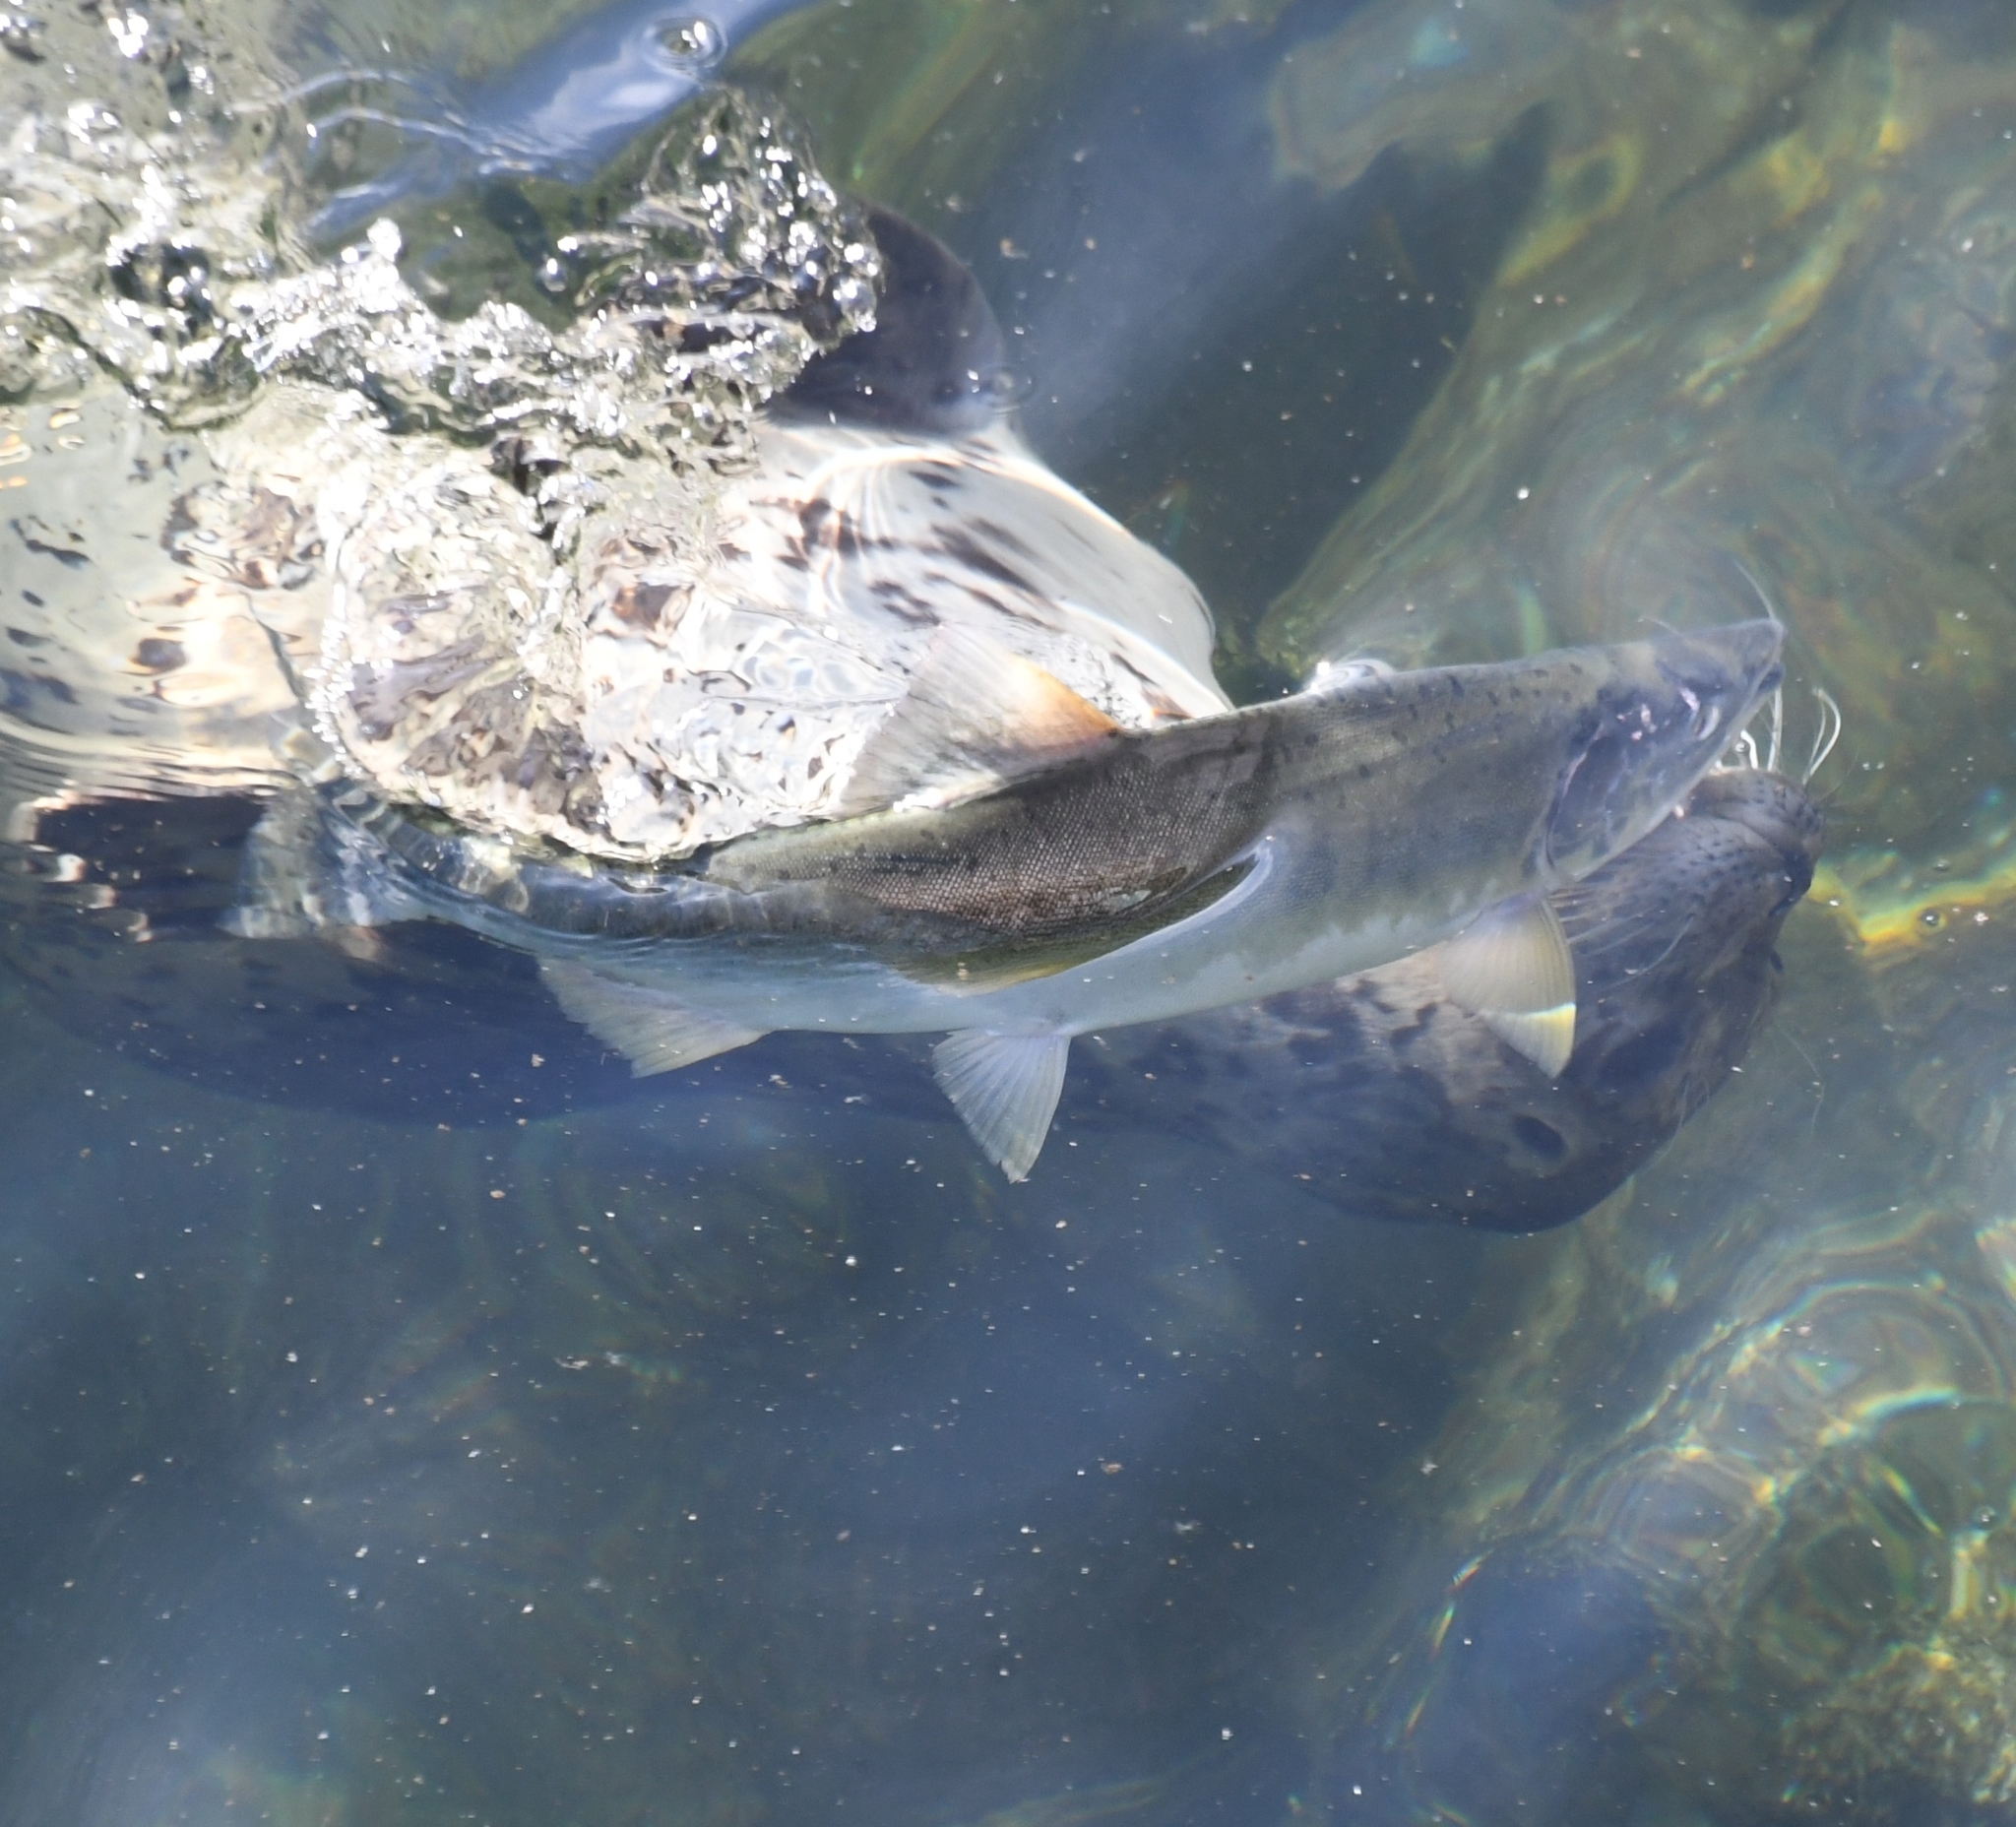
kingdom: Animalia
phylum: Chordata
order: Salmoniformes
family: Salmonidae
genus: Oncorhynchus
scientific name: Oncorhynchus gorbuscha
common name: Humpback salmon
